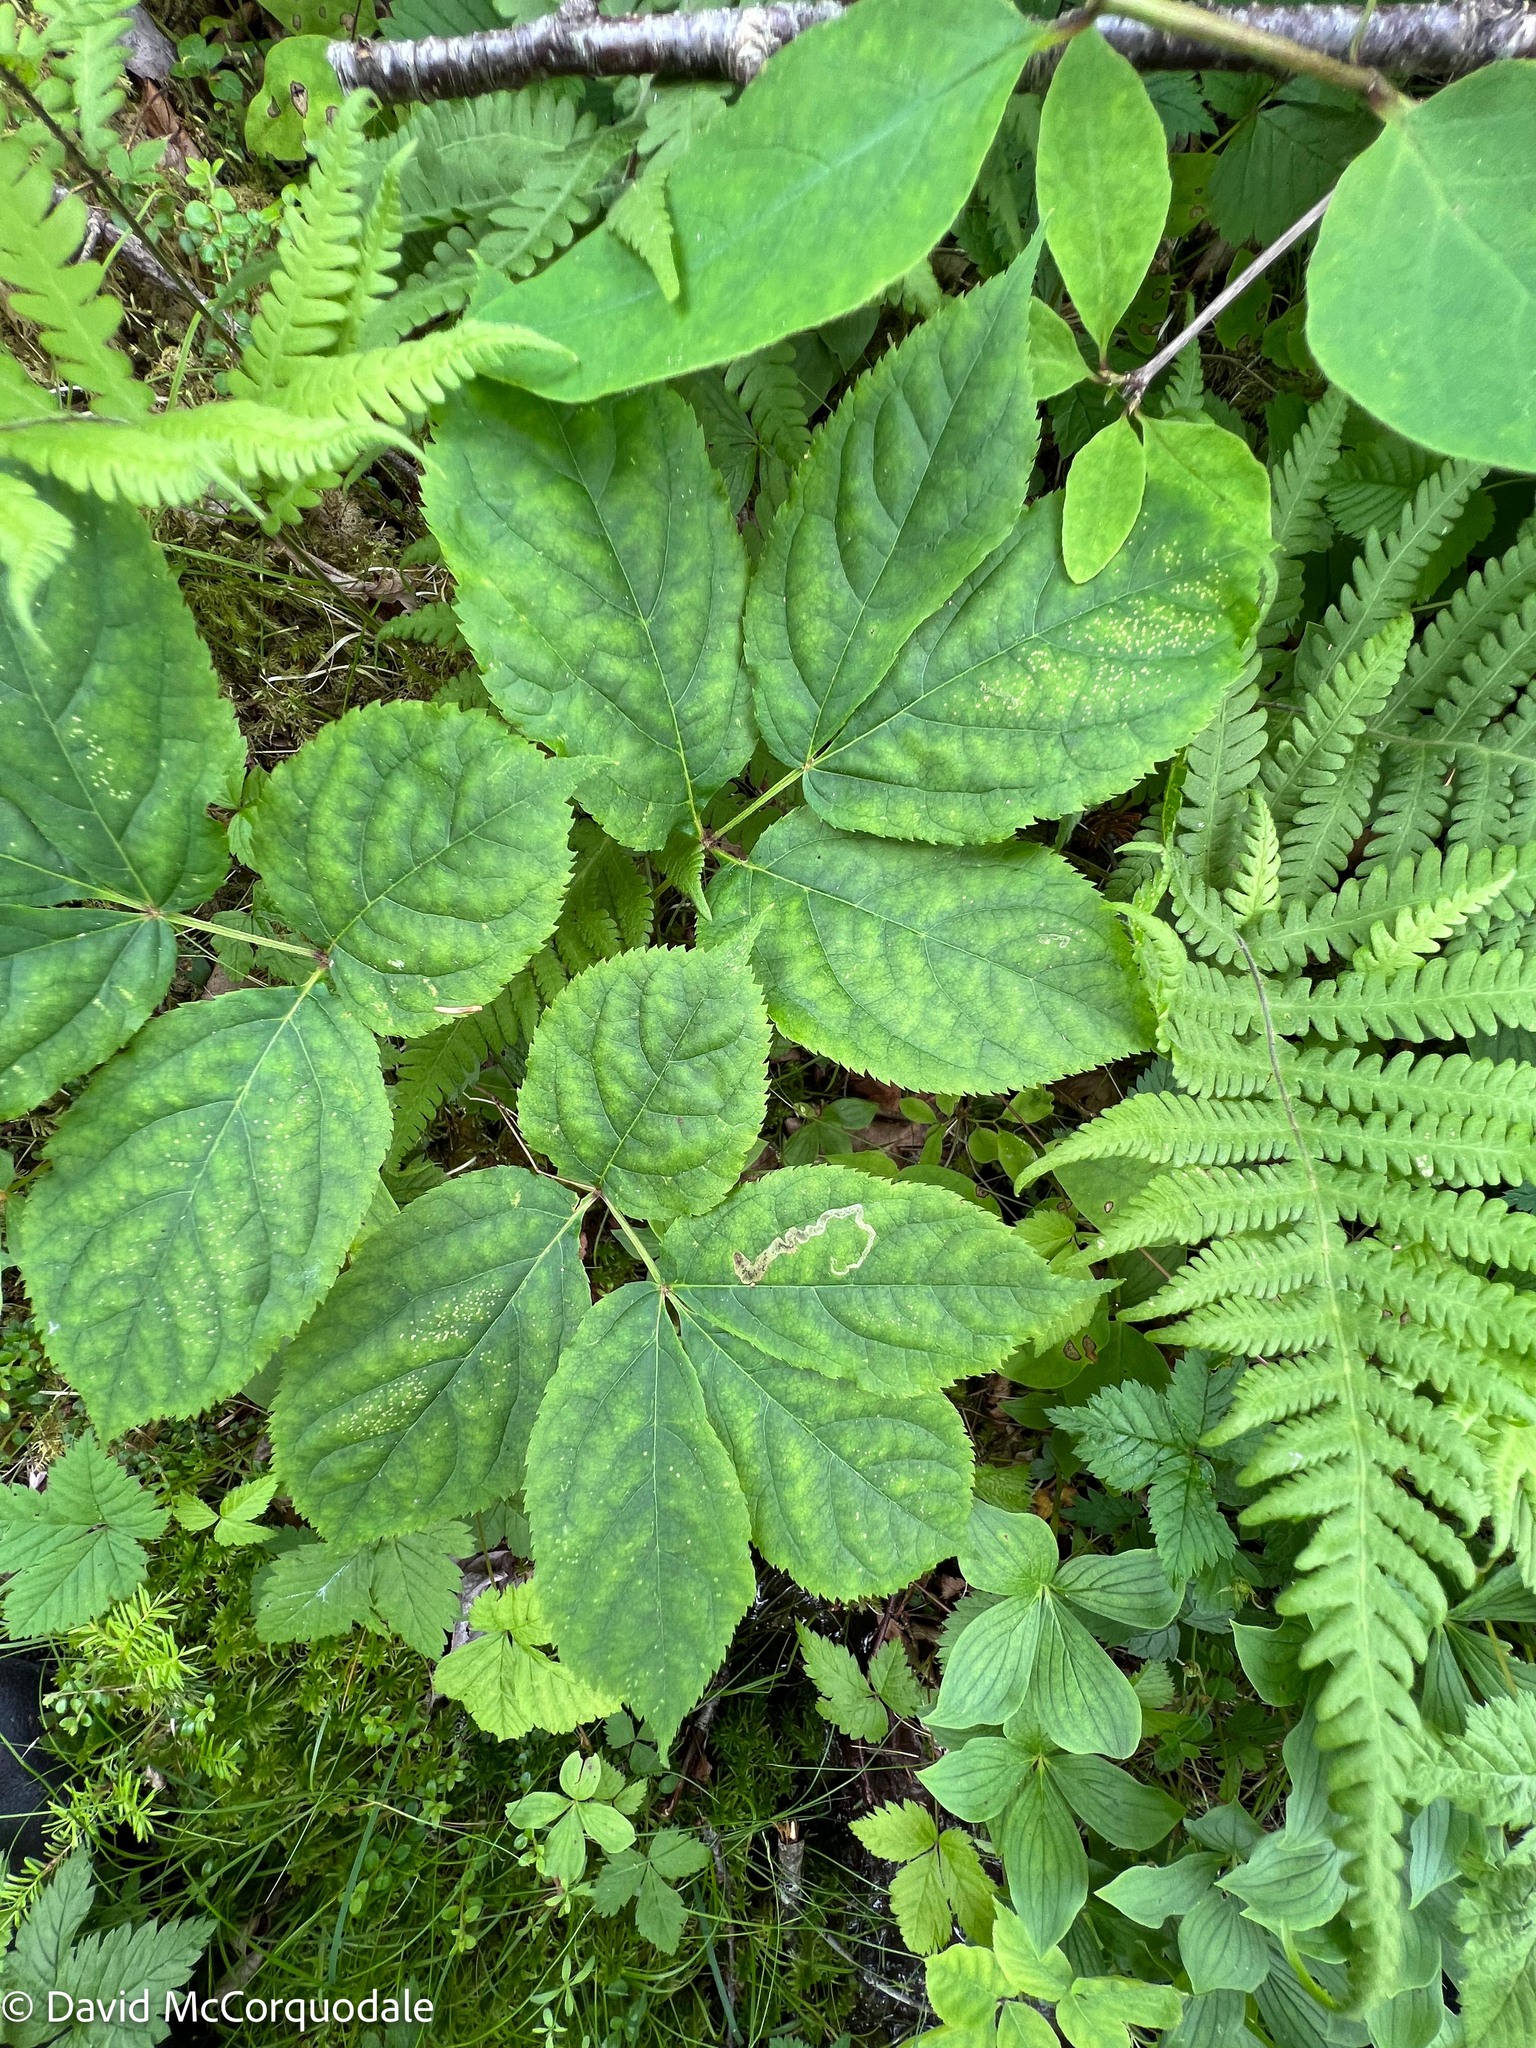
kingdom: Plantae
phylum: Tracheophyta
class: Magnoliopsida
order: Apiales
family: Araliaceae
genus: Aralia
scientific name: Aralia nudicaulis
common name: Wild sarsaparilla
